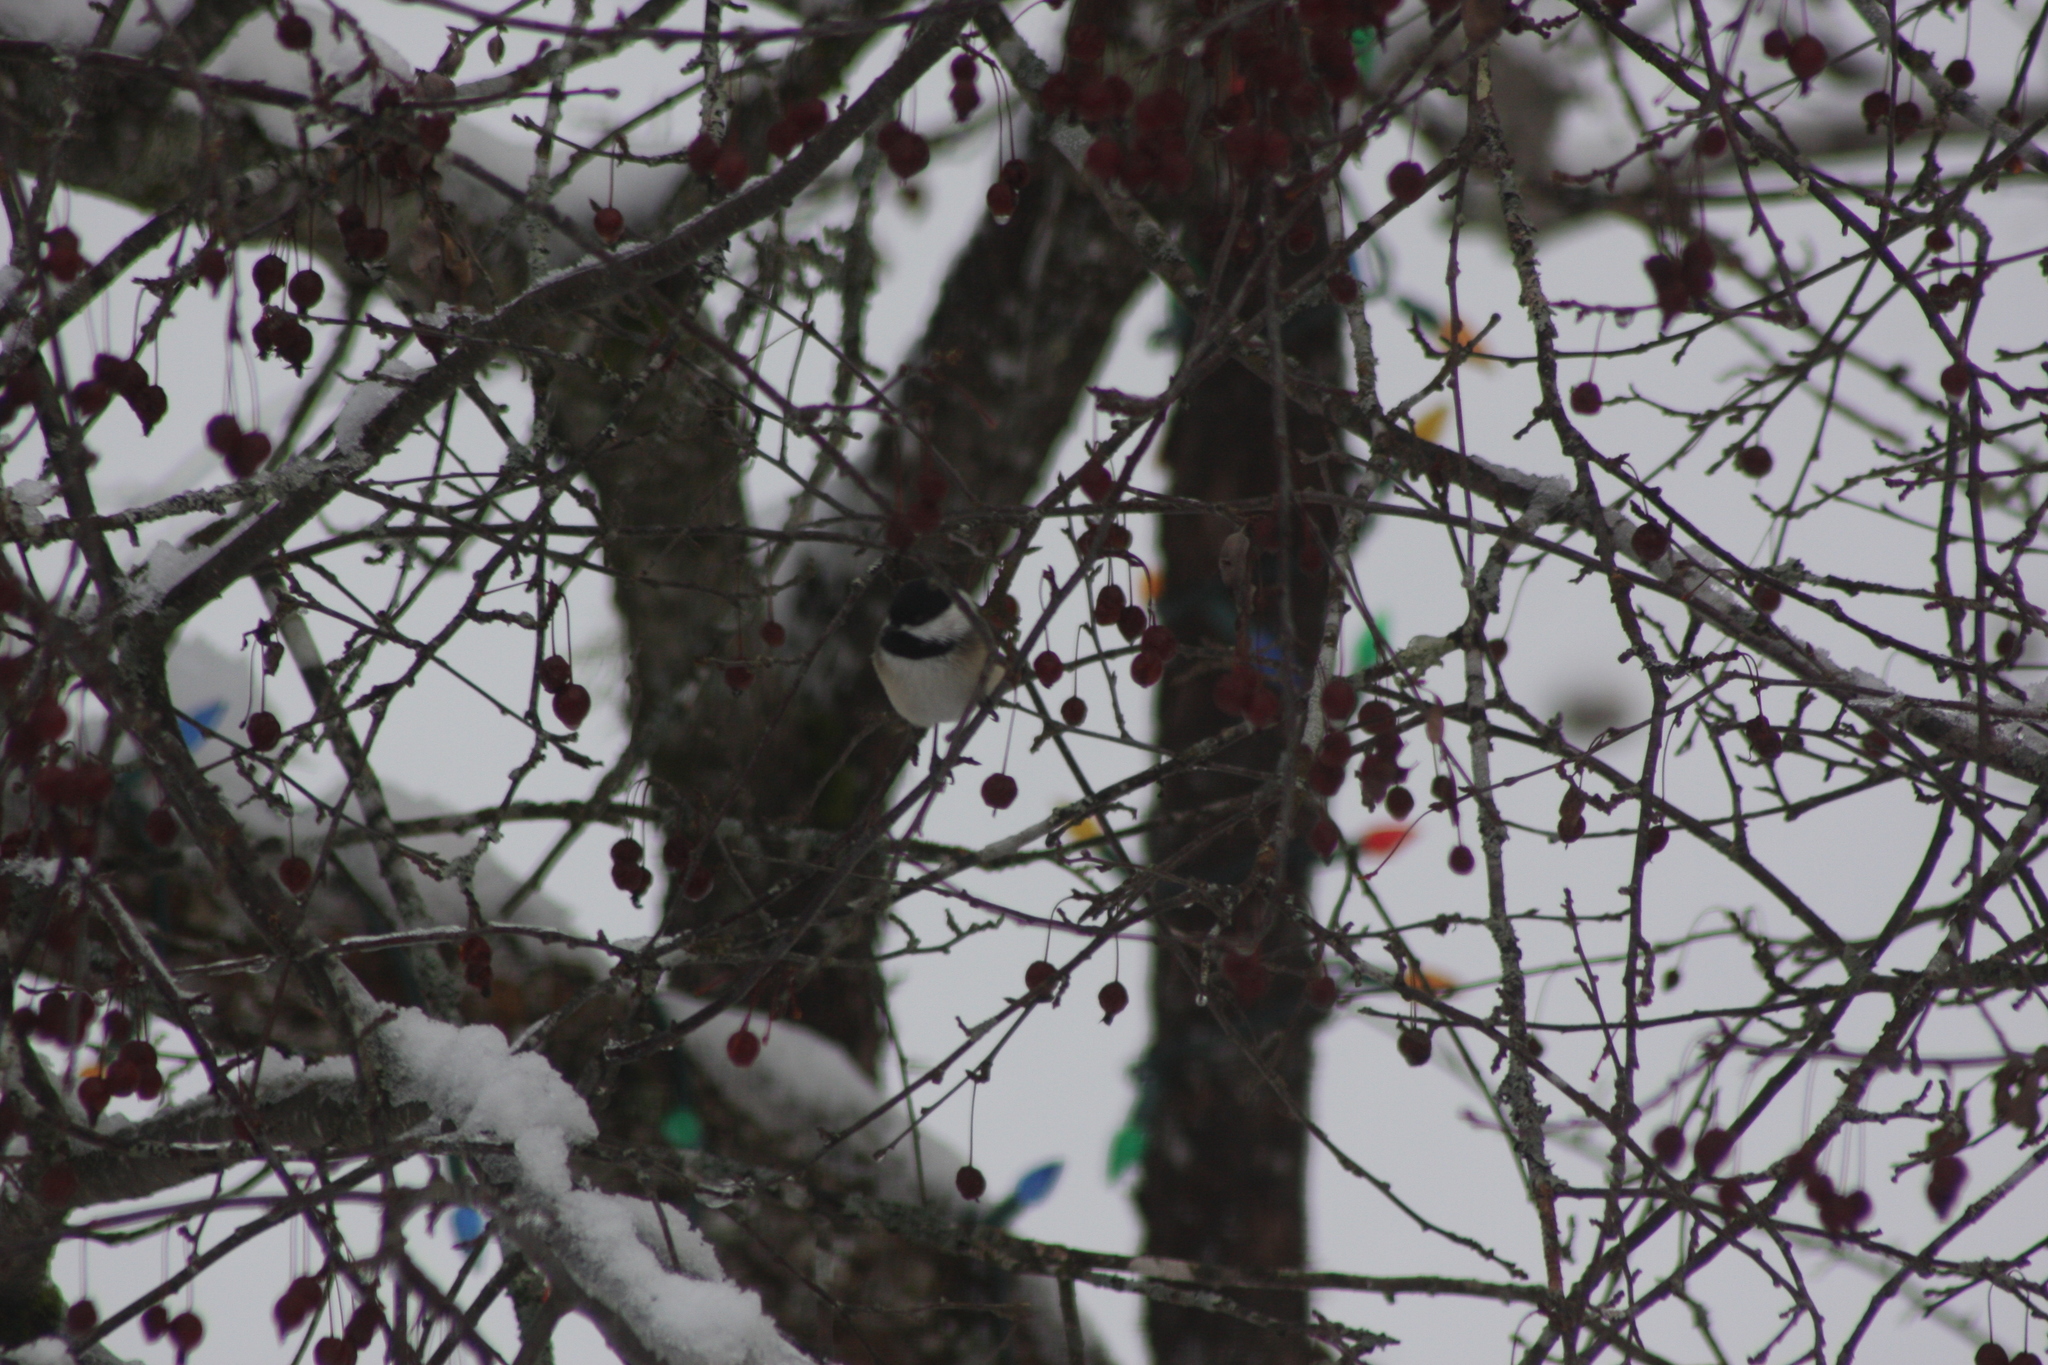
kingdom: Animalia
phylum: Chordata
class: Aves
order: Passeriformes
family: Paridae
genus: Poecile
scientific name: Poecile atricapillus
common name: Black-capped chickadee
